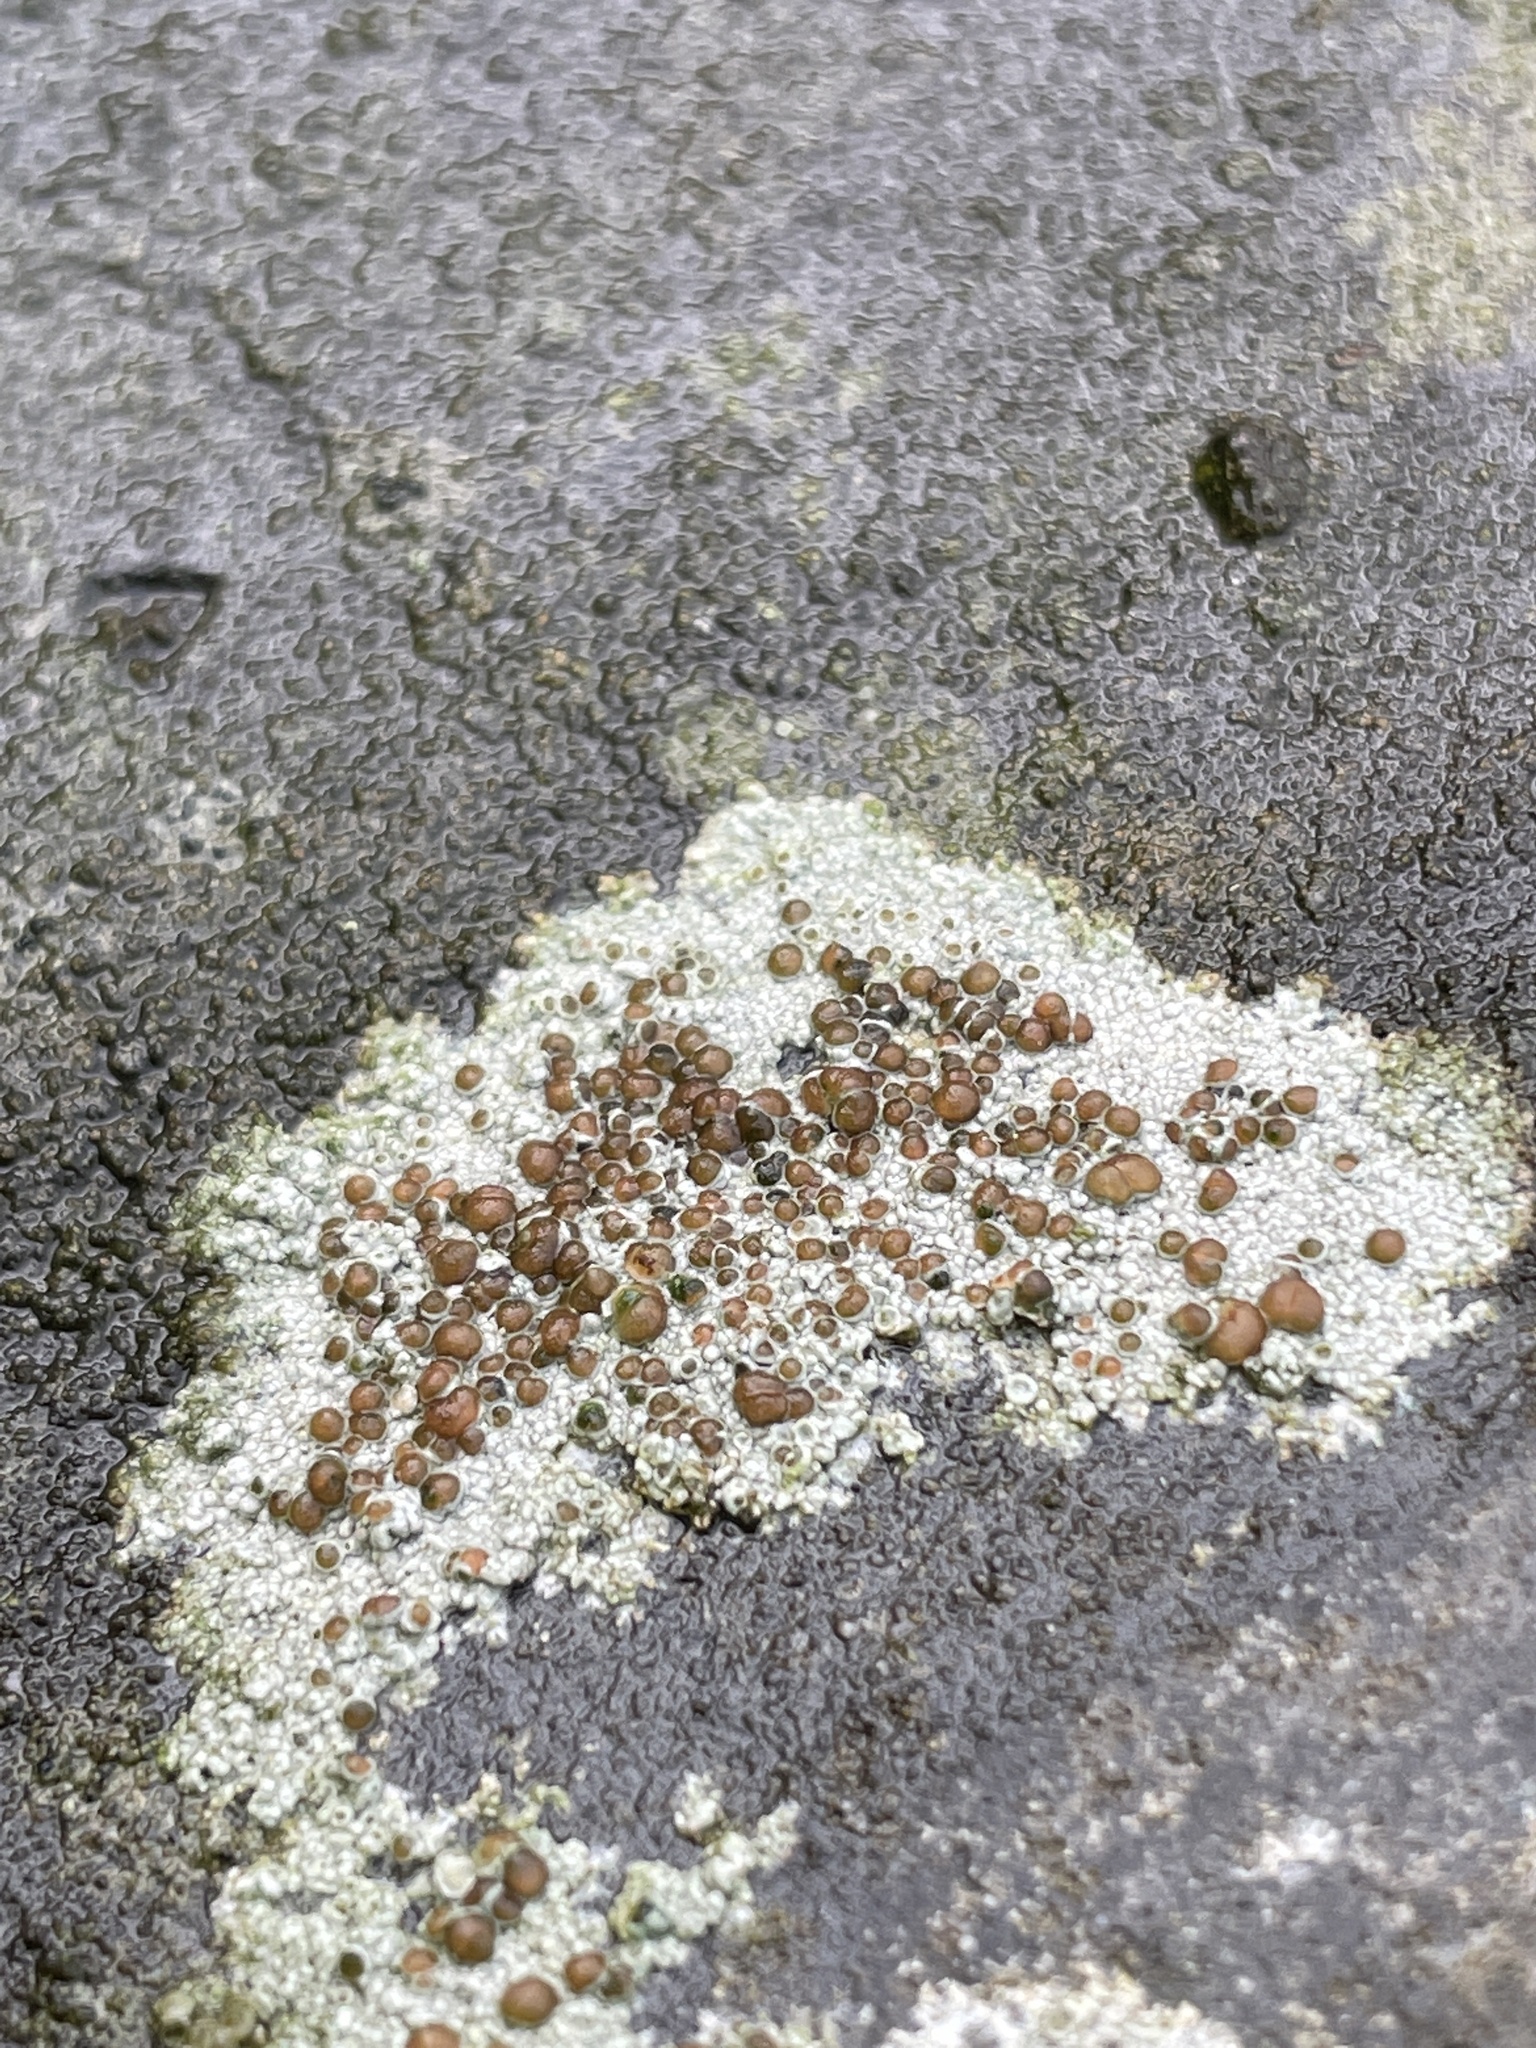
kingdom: Fungi
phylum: Ascomycota
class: Lecanoromycetes
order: Lecanorales
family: Lecanoraceae
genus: Lecanora
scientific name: Lecanora campestris
